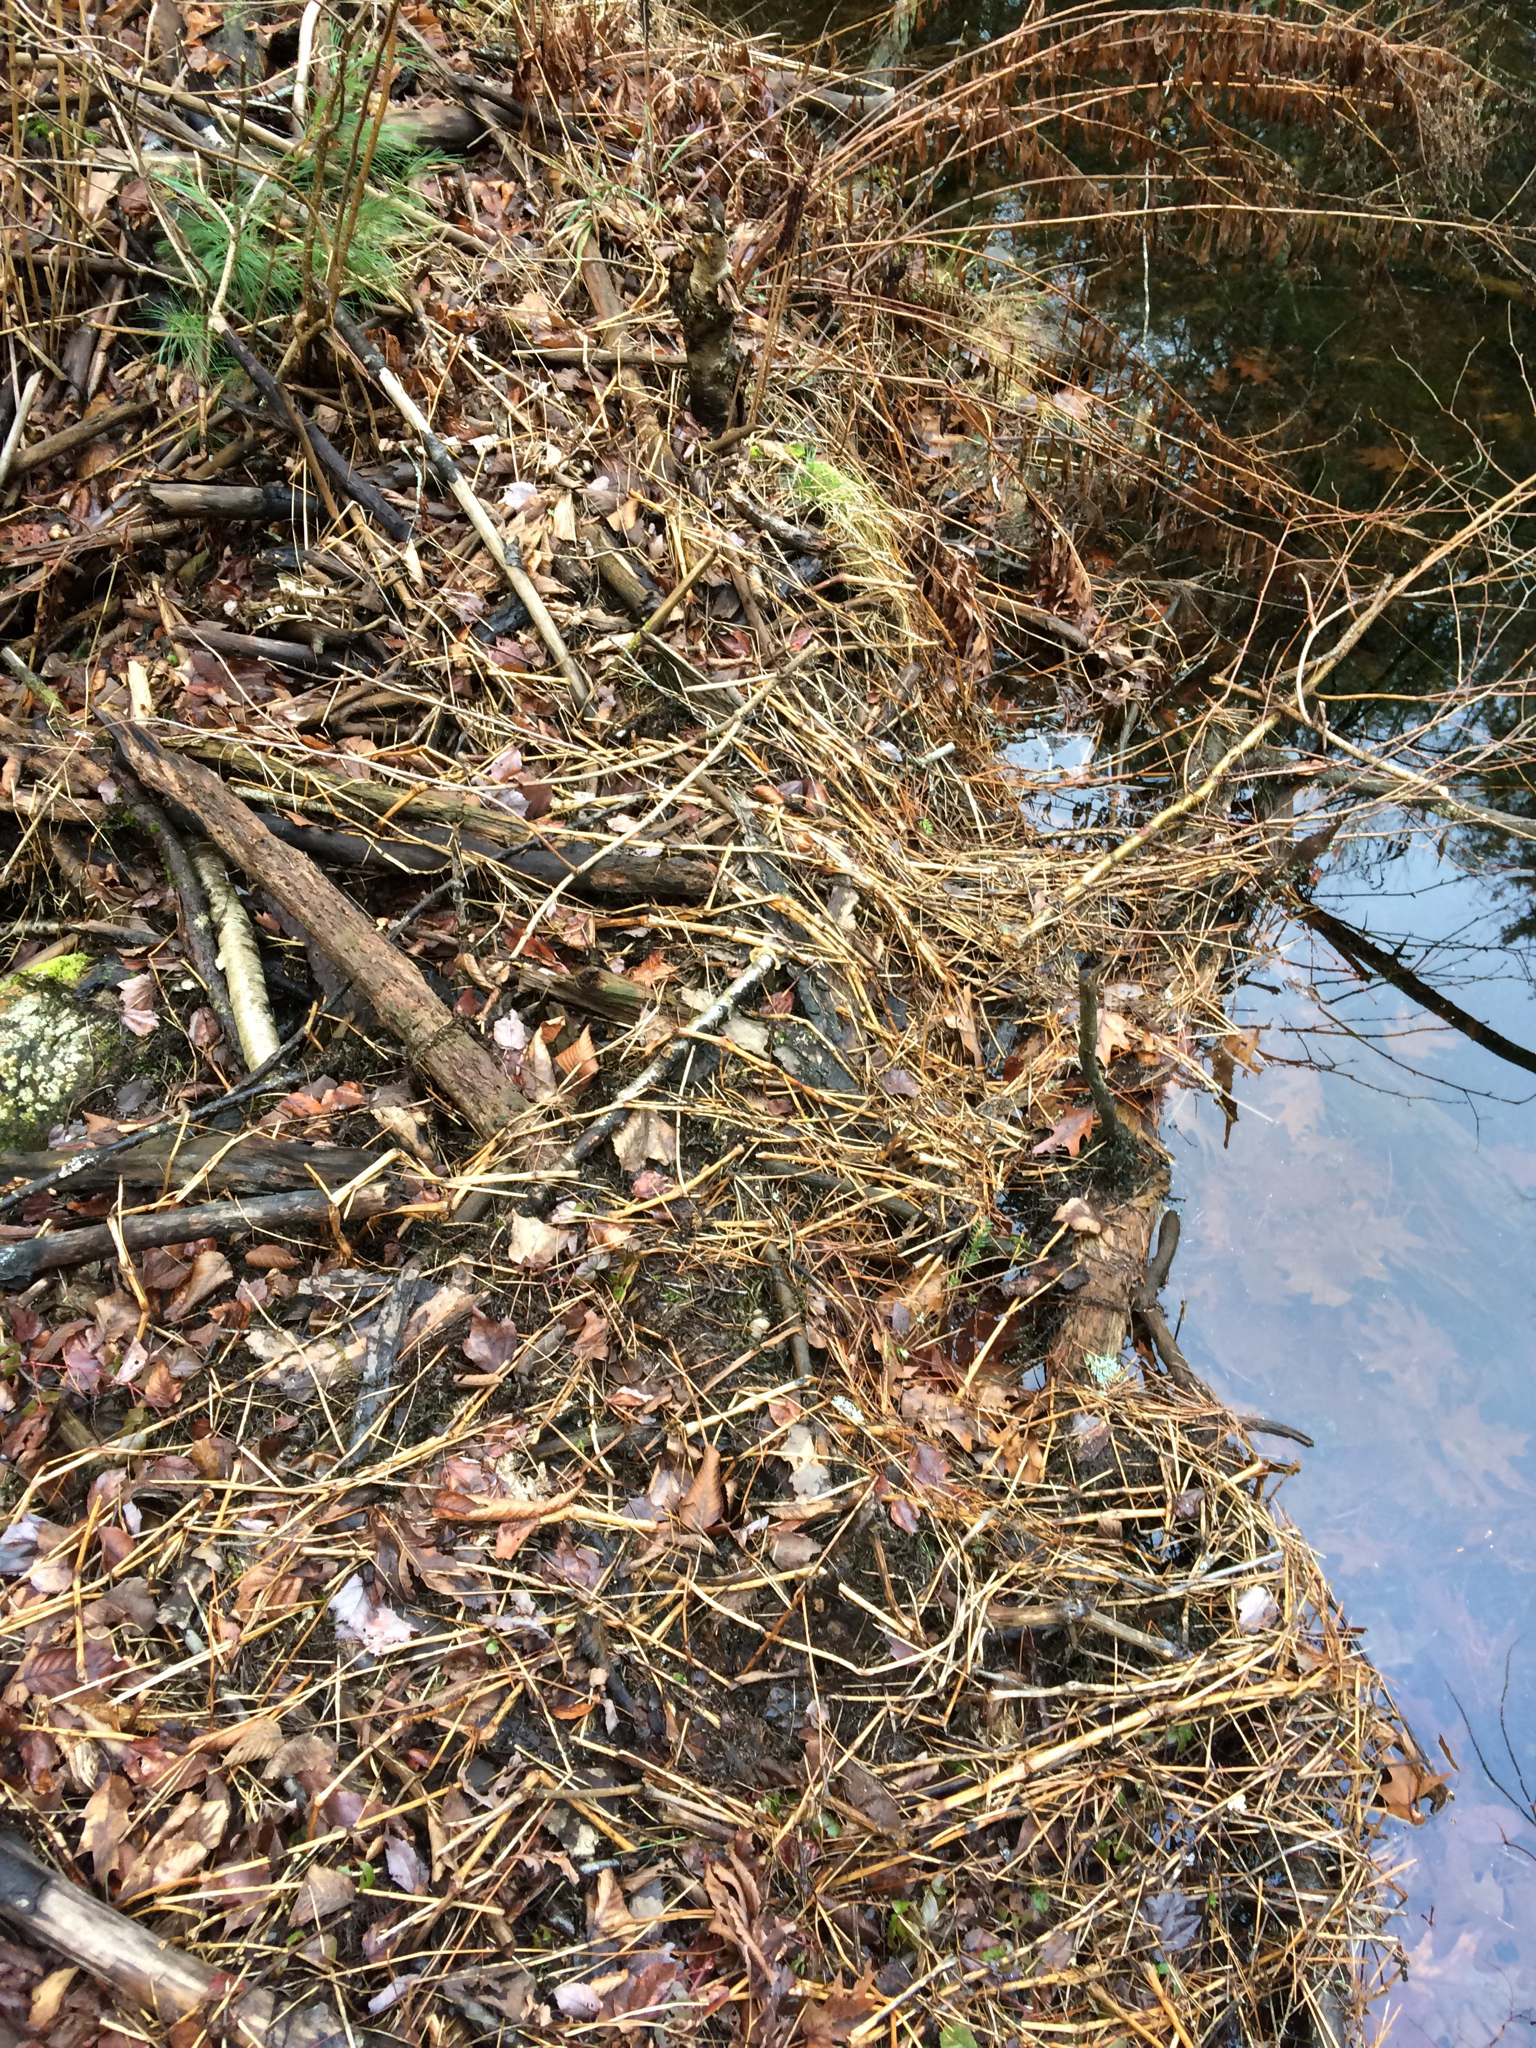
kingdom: Animalia
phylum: Chordata
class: Mammalia
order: Rodentia
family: Castoridae
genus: Castor
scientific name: Castor canadensis
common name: American beaver
